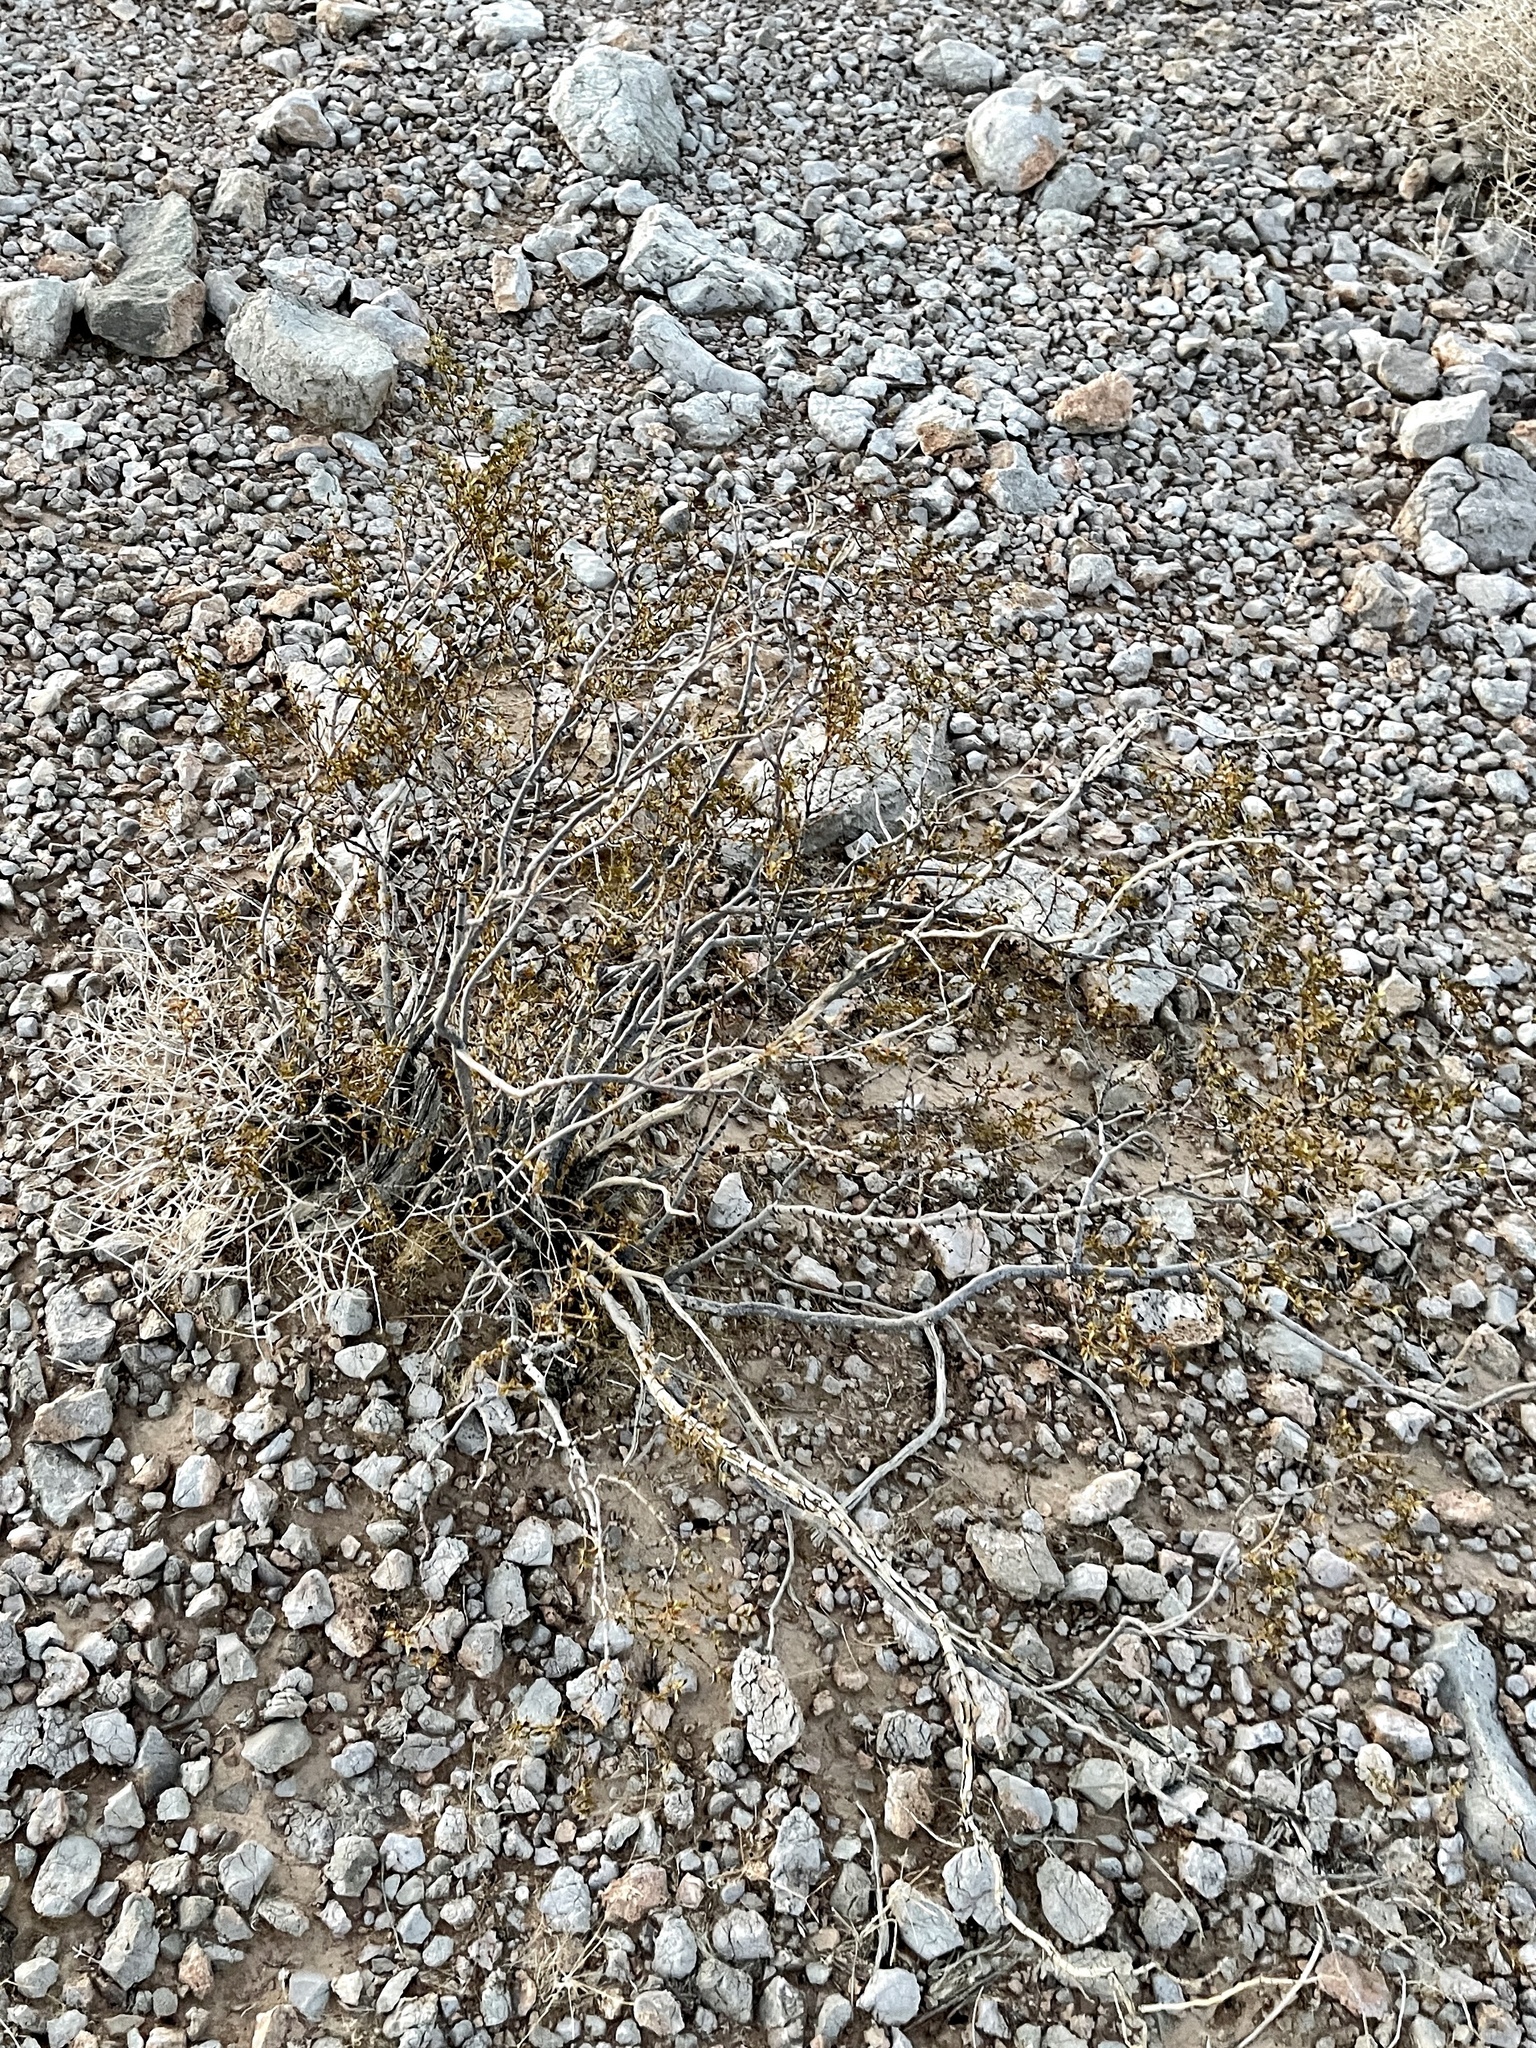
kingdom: Plantae
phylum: Tracheophyta
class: Magnoliopsida
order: Zygophyllales
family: Zygophyllaceae
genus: Larrea
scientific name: Larrea tridentata
